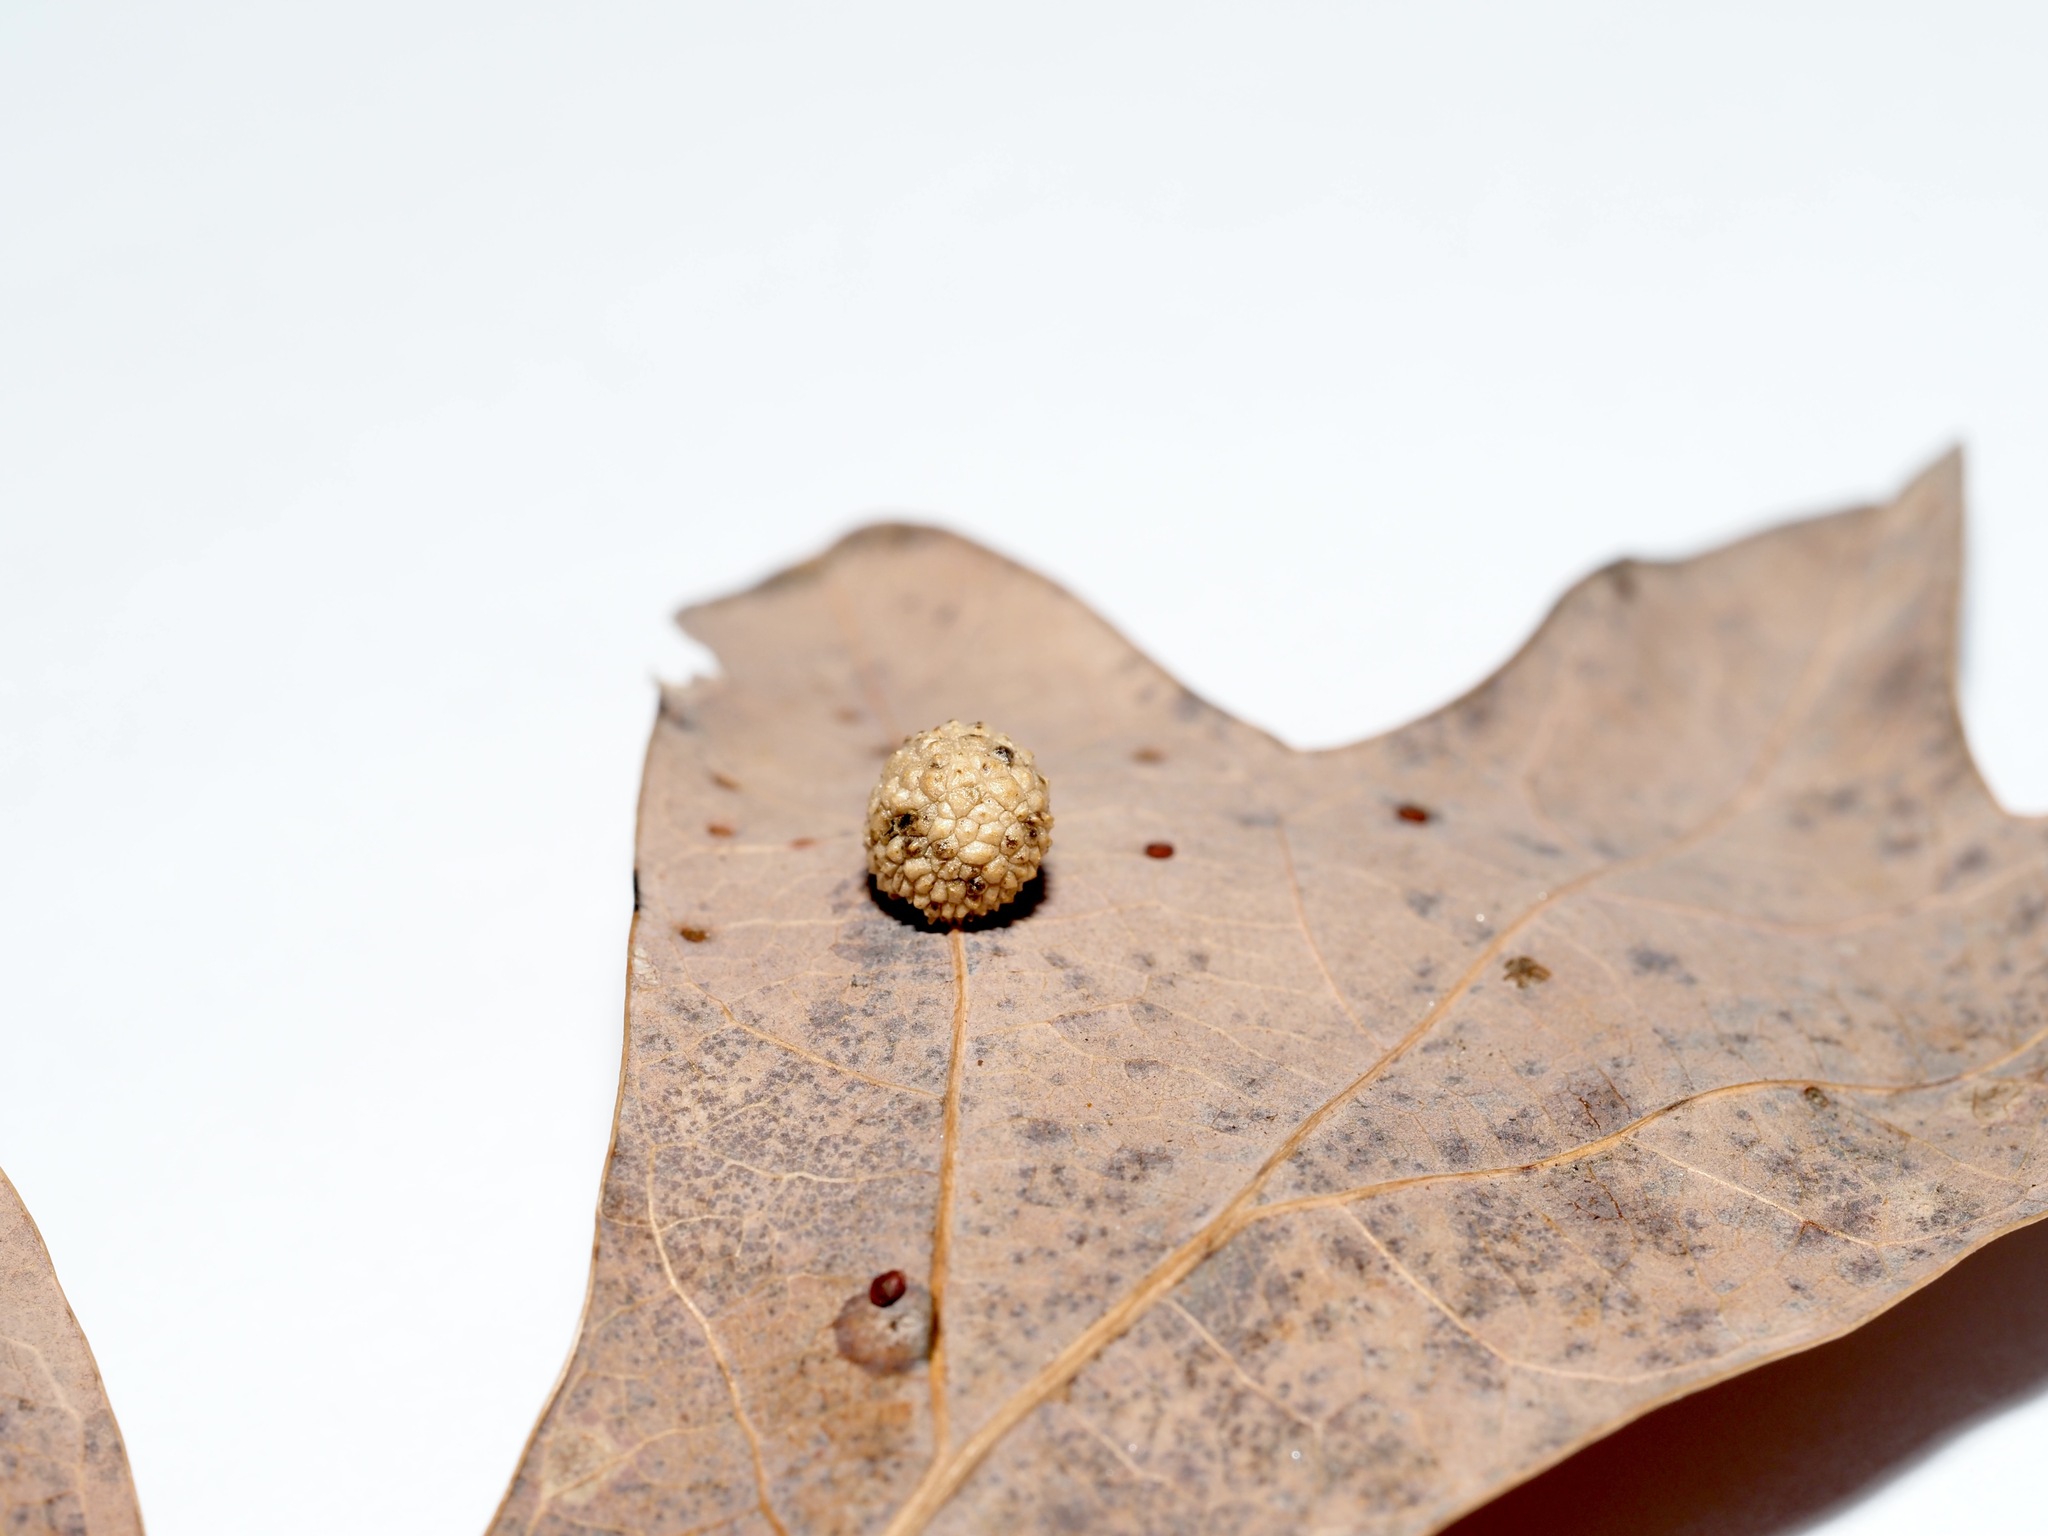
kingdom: Animalia
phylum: Arthropoda
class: Insecta
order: Hymenoptera
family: Cynipidae
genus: Acraspis
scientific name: Acraspis
